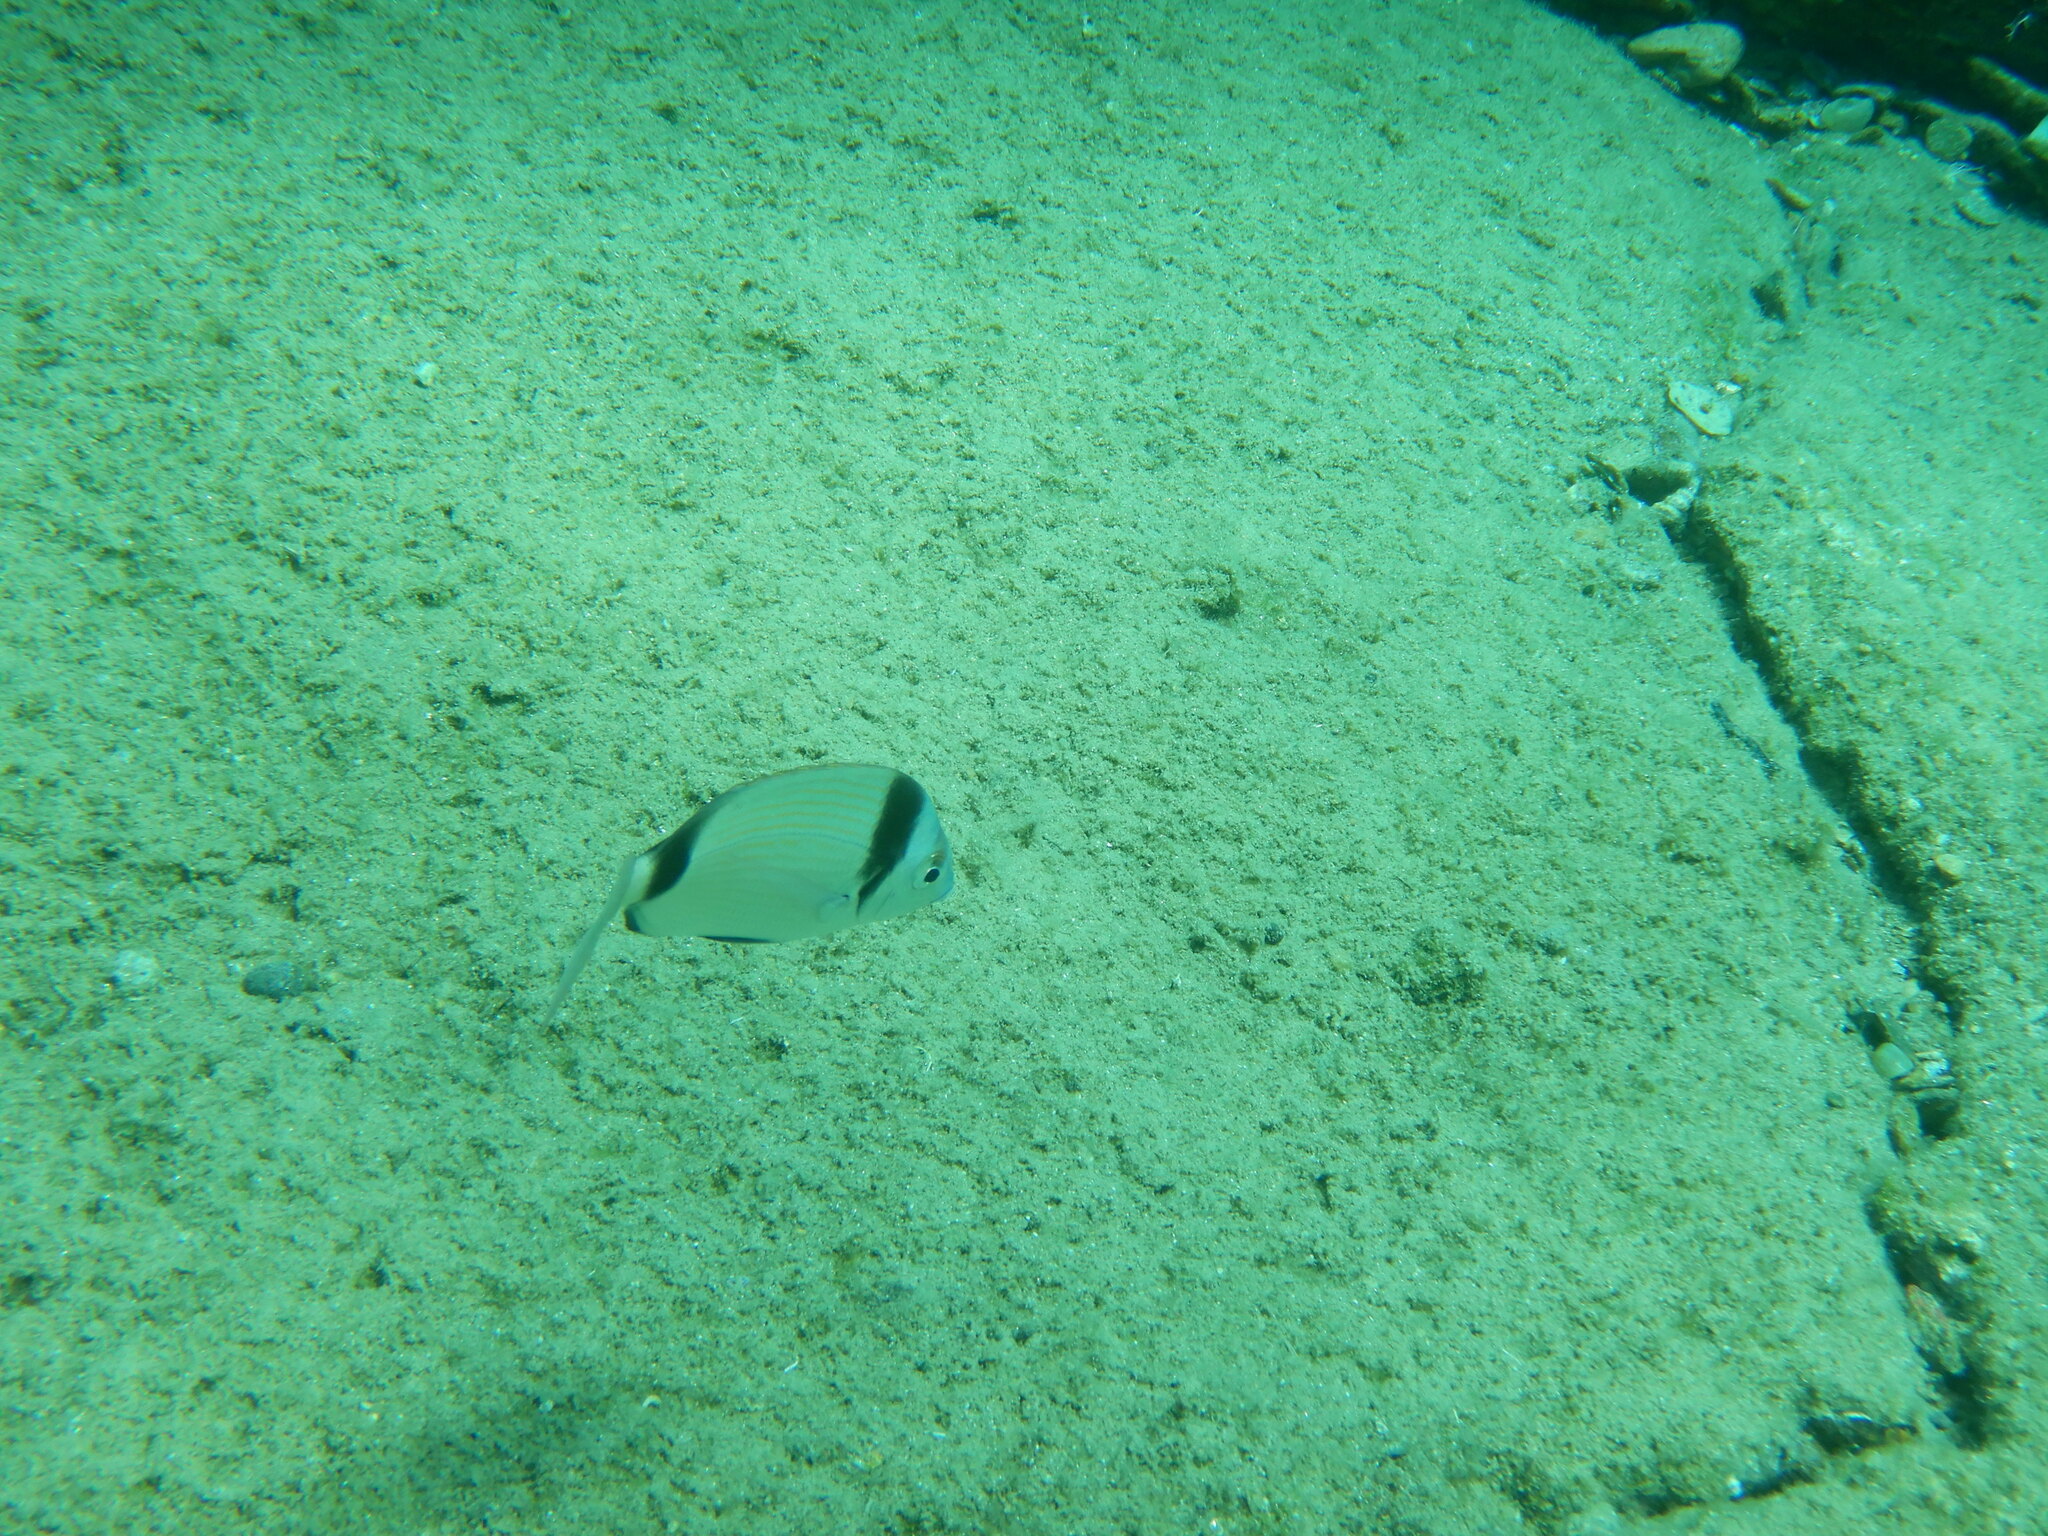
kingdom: Animalia
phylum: Chordata
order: Perciformes
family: Sparidae
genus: Diplodus
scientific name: Diplodus vulgaris
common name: Common two-banded seabream
